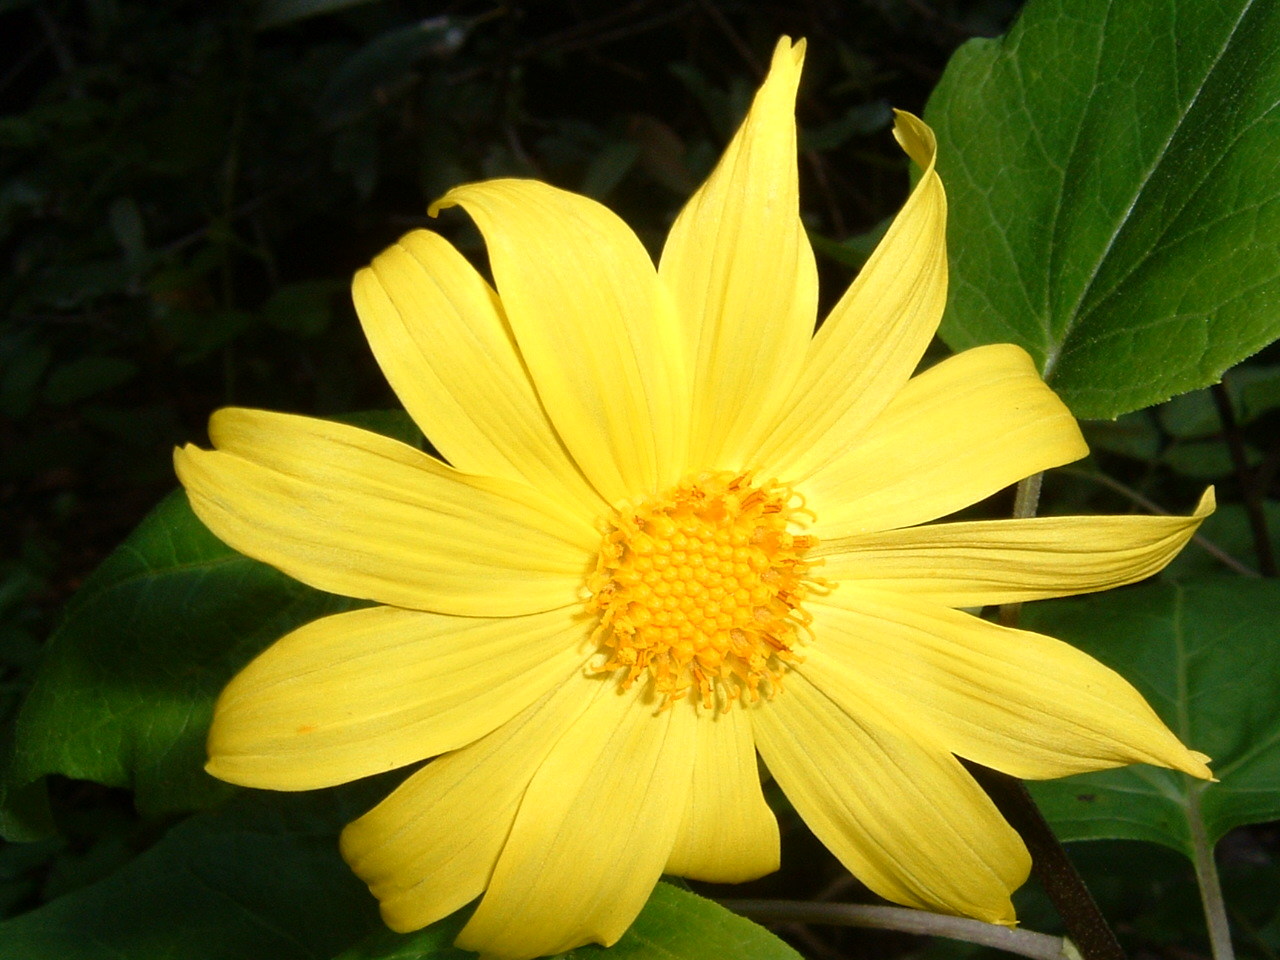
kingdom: Plantae
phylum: Tracheophyta
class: Magnoliopsida
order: Asterales
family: Asteraceae
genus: Venegasia
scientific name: Venegasia carpesioides
